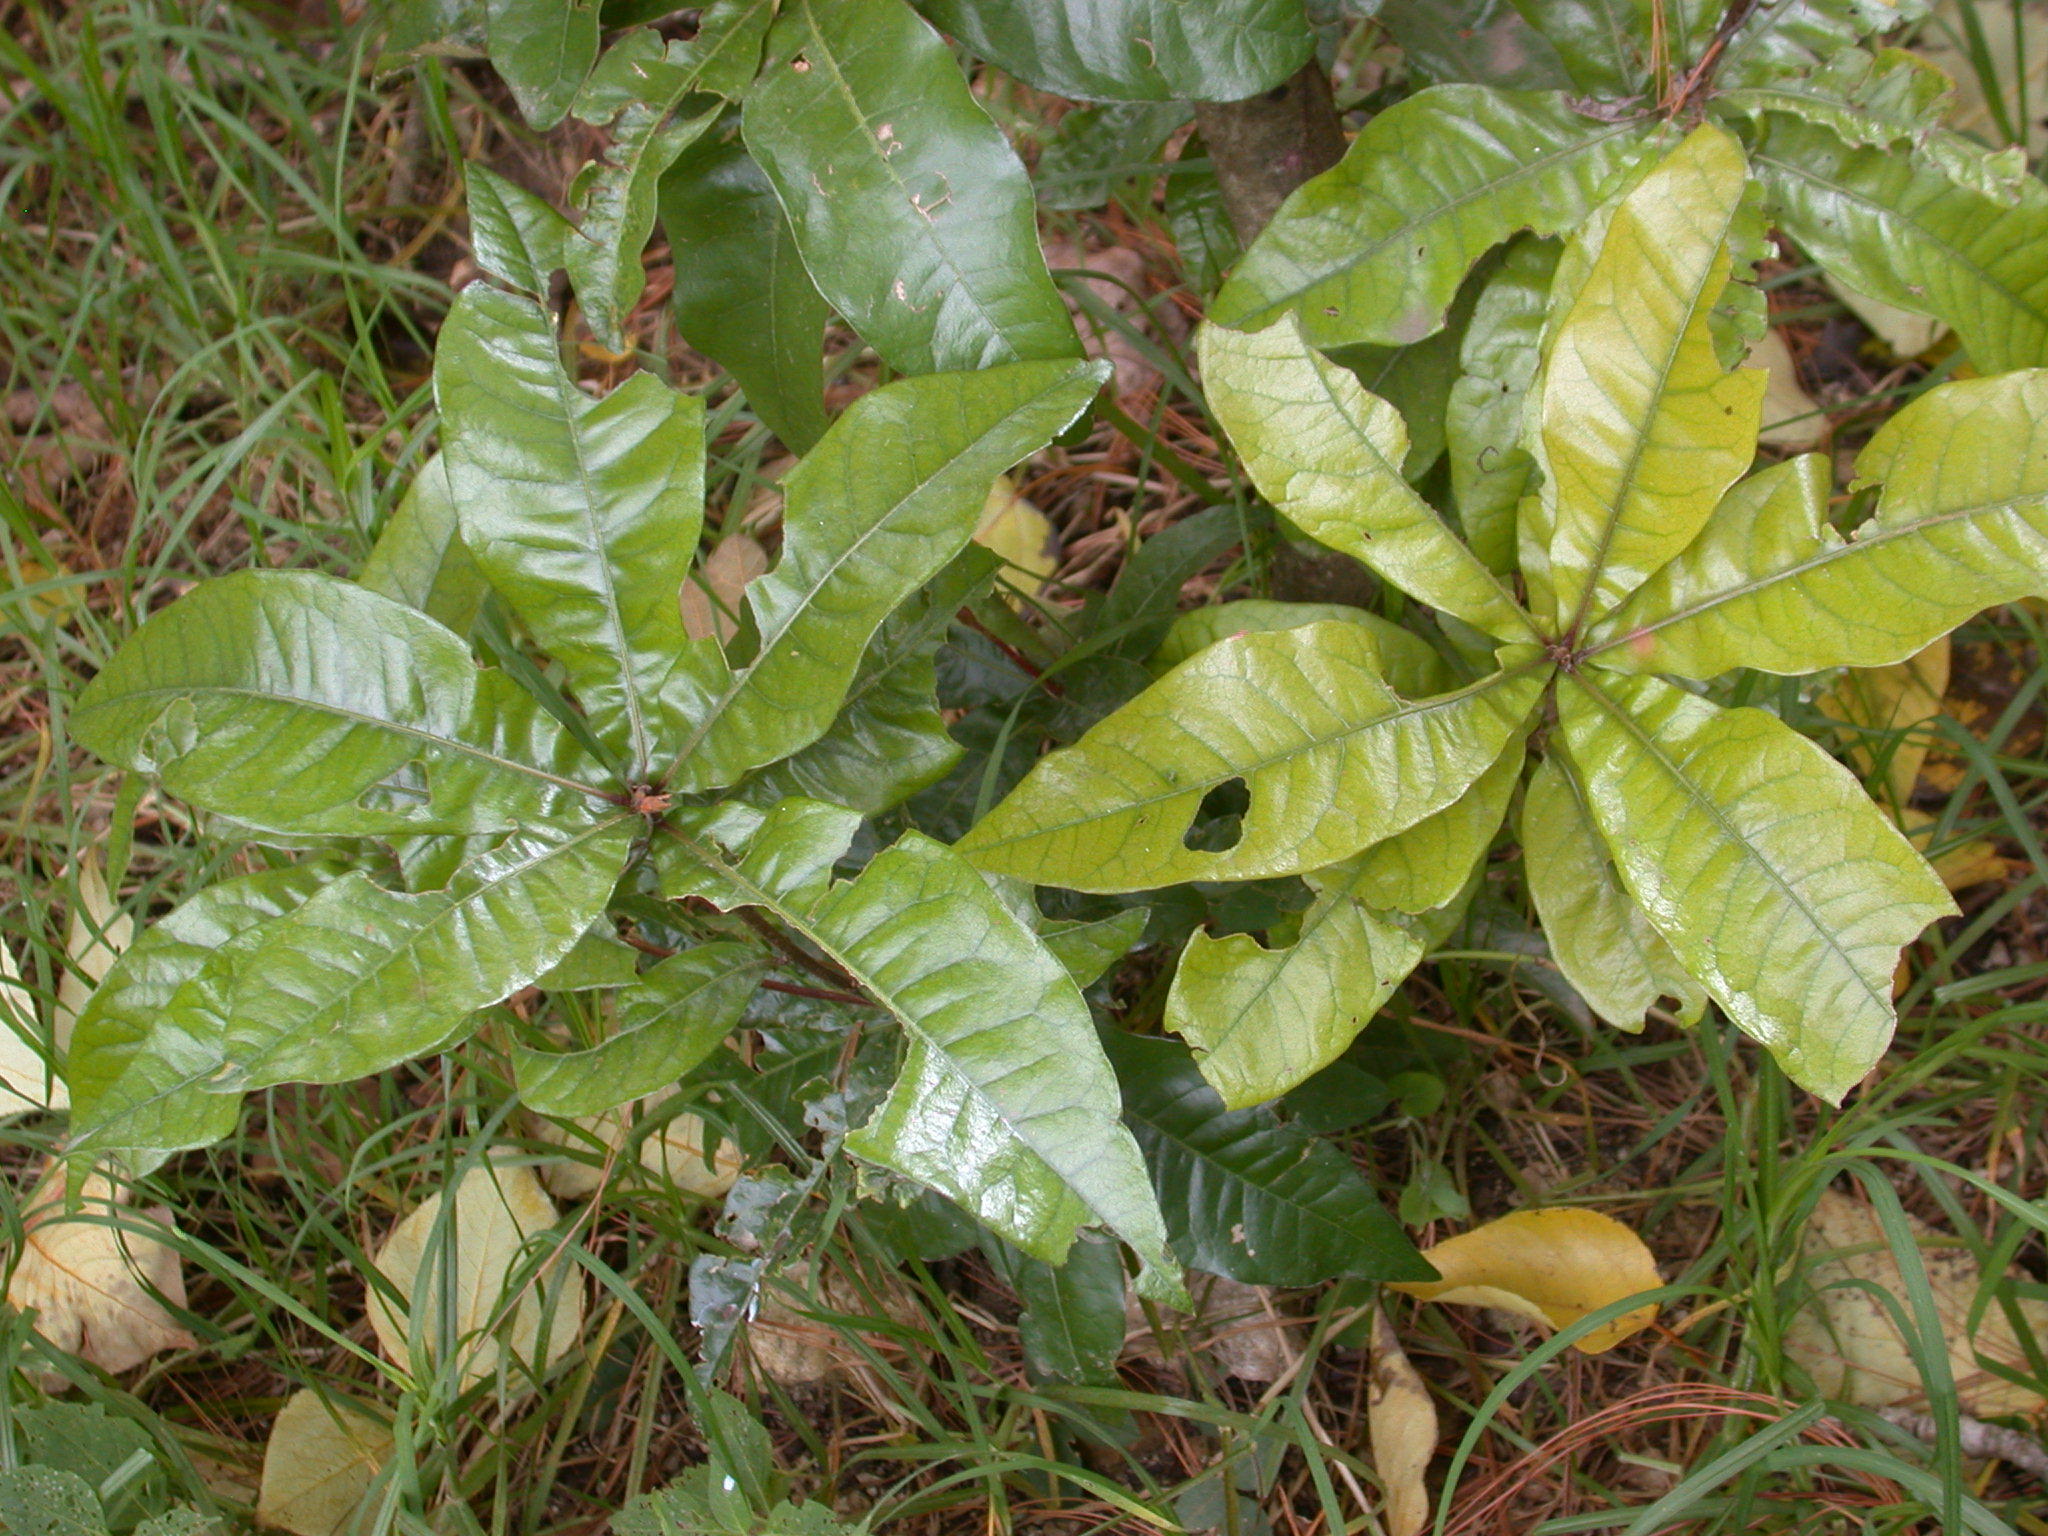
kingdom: Plantae
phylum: Tracheophyta
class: Magnoliopsida
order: Fagales
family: Fagaceae
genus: Quercus
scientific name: Quercus sapotifolia
